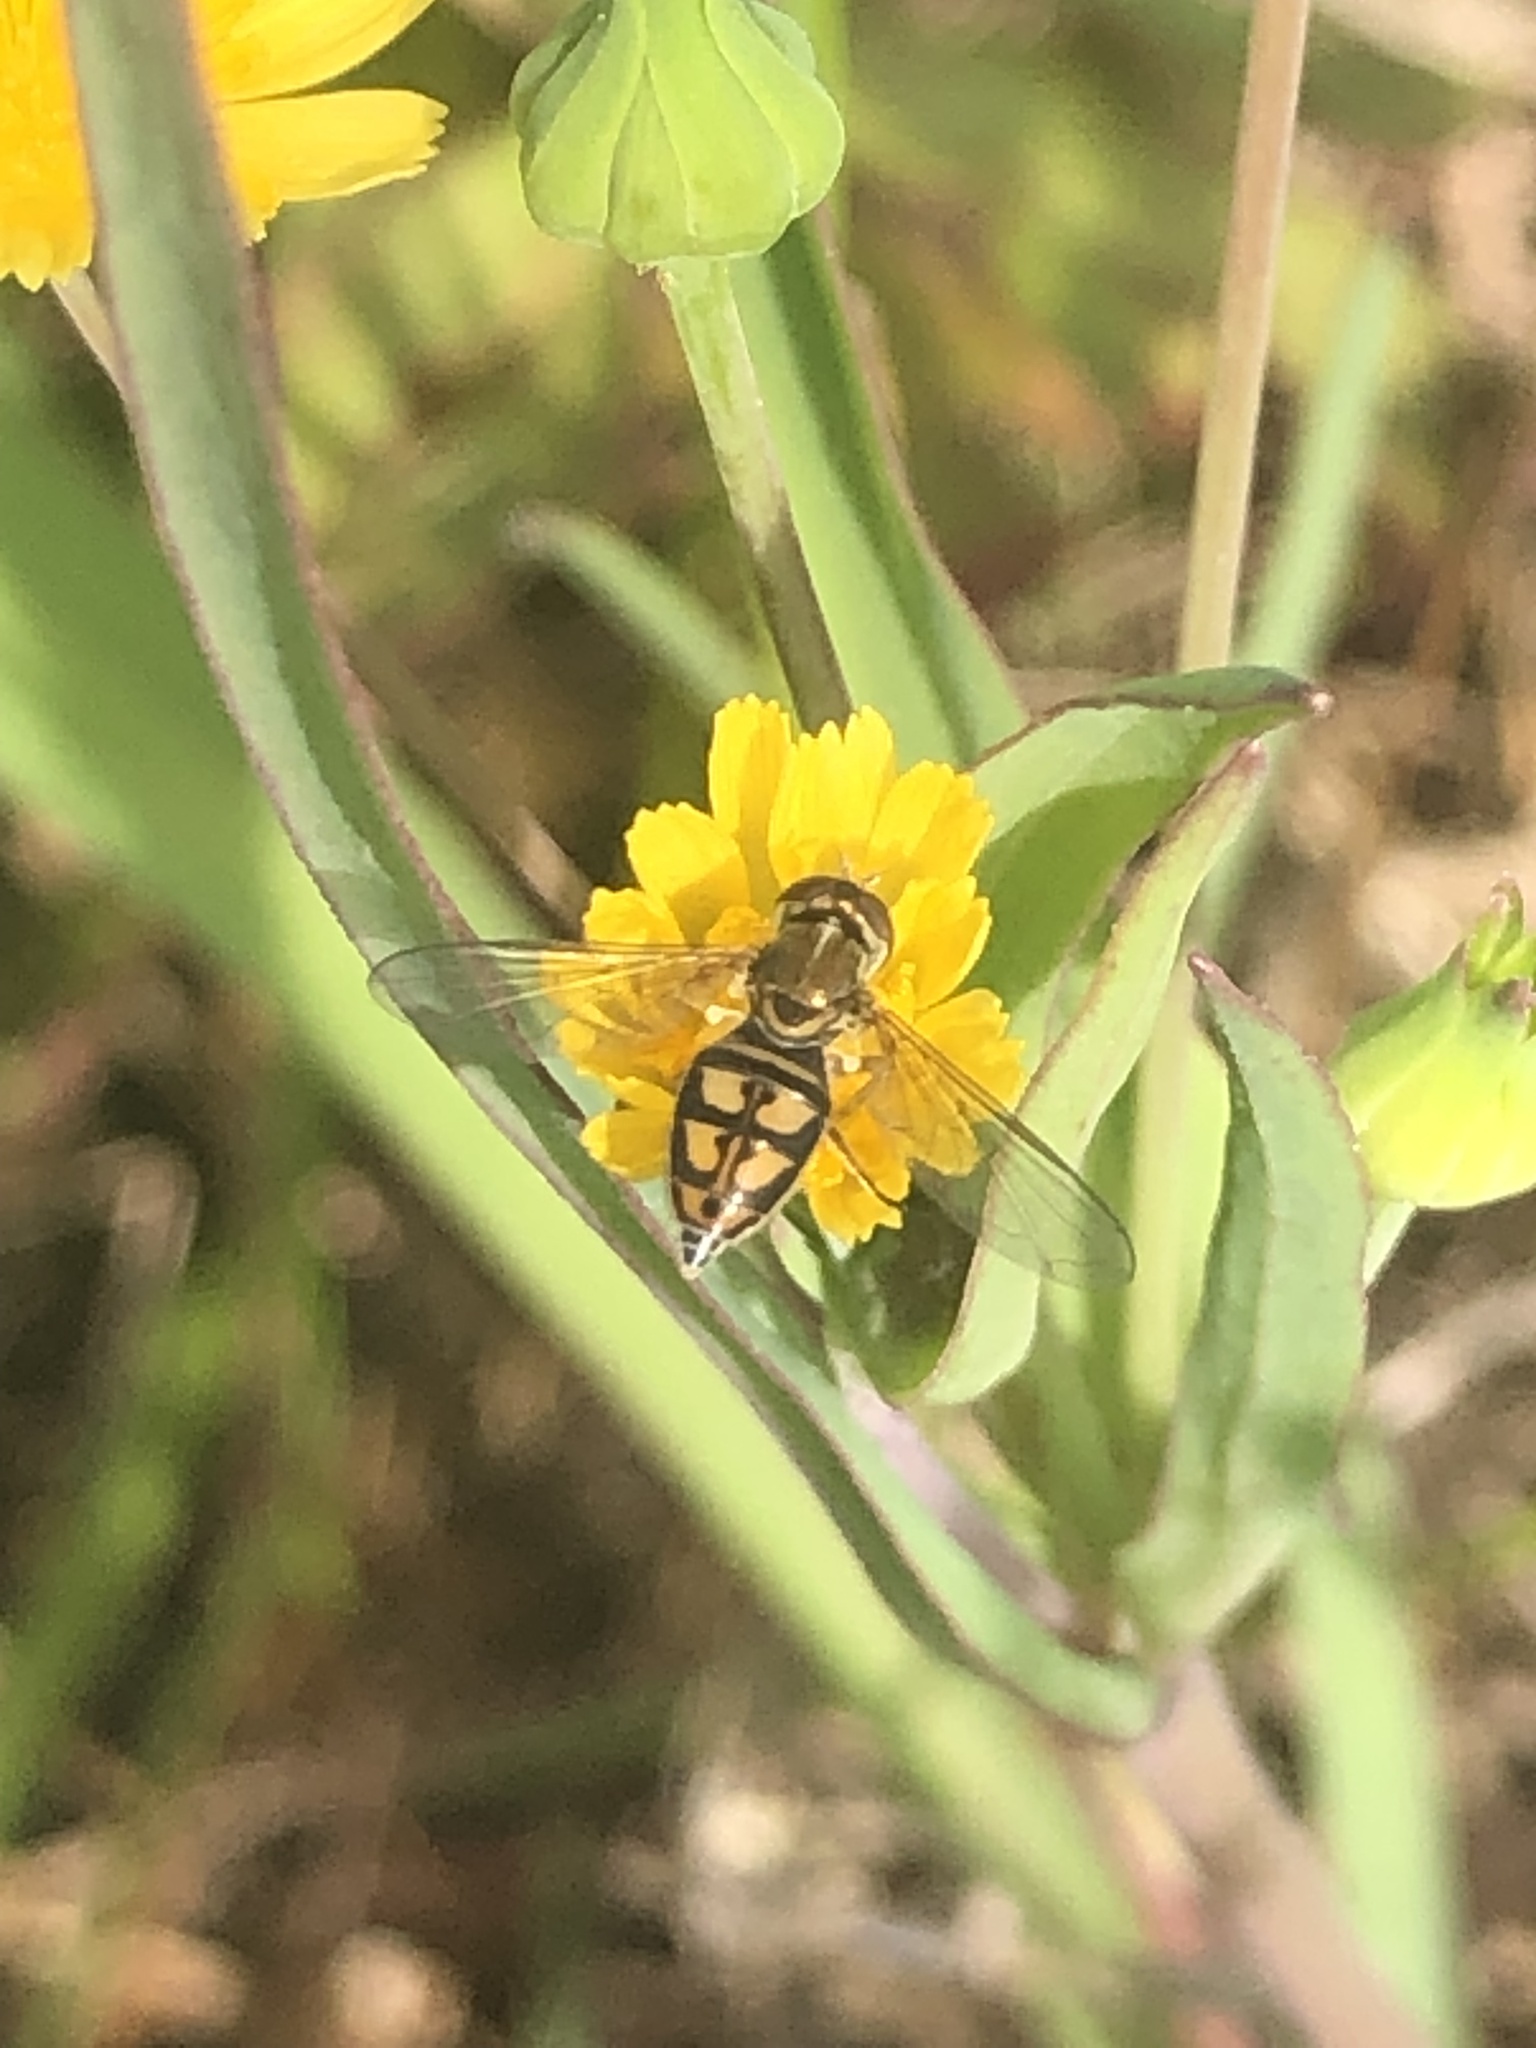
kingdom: Animalia
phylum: Arthropoda
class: Insecta
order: Diptera
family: Syrphidae
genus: Toxomerus
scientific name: Toxomerus marginatus
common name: Syrphid fly
